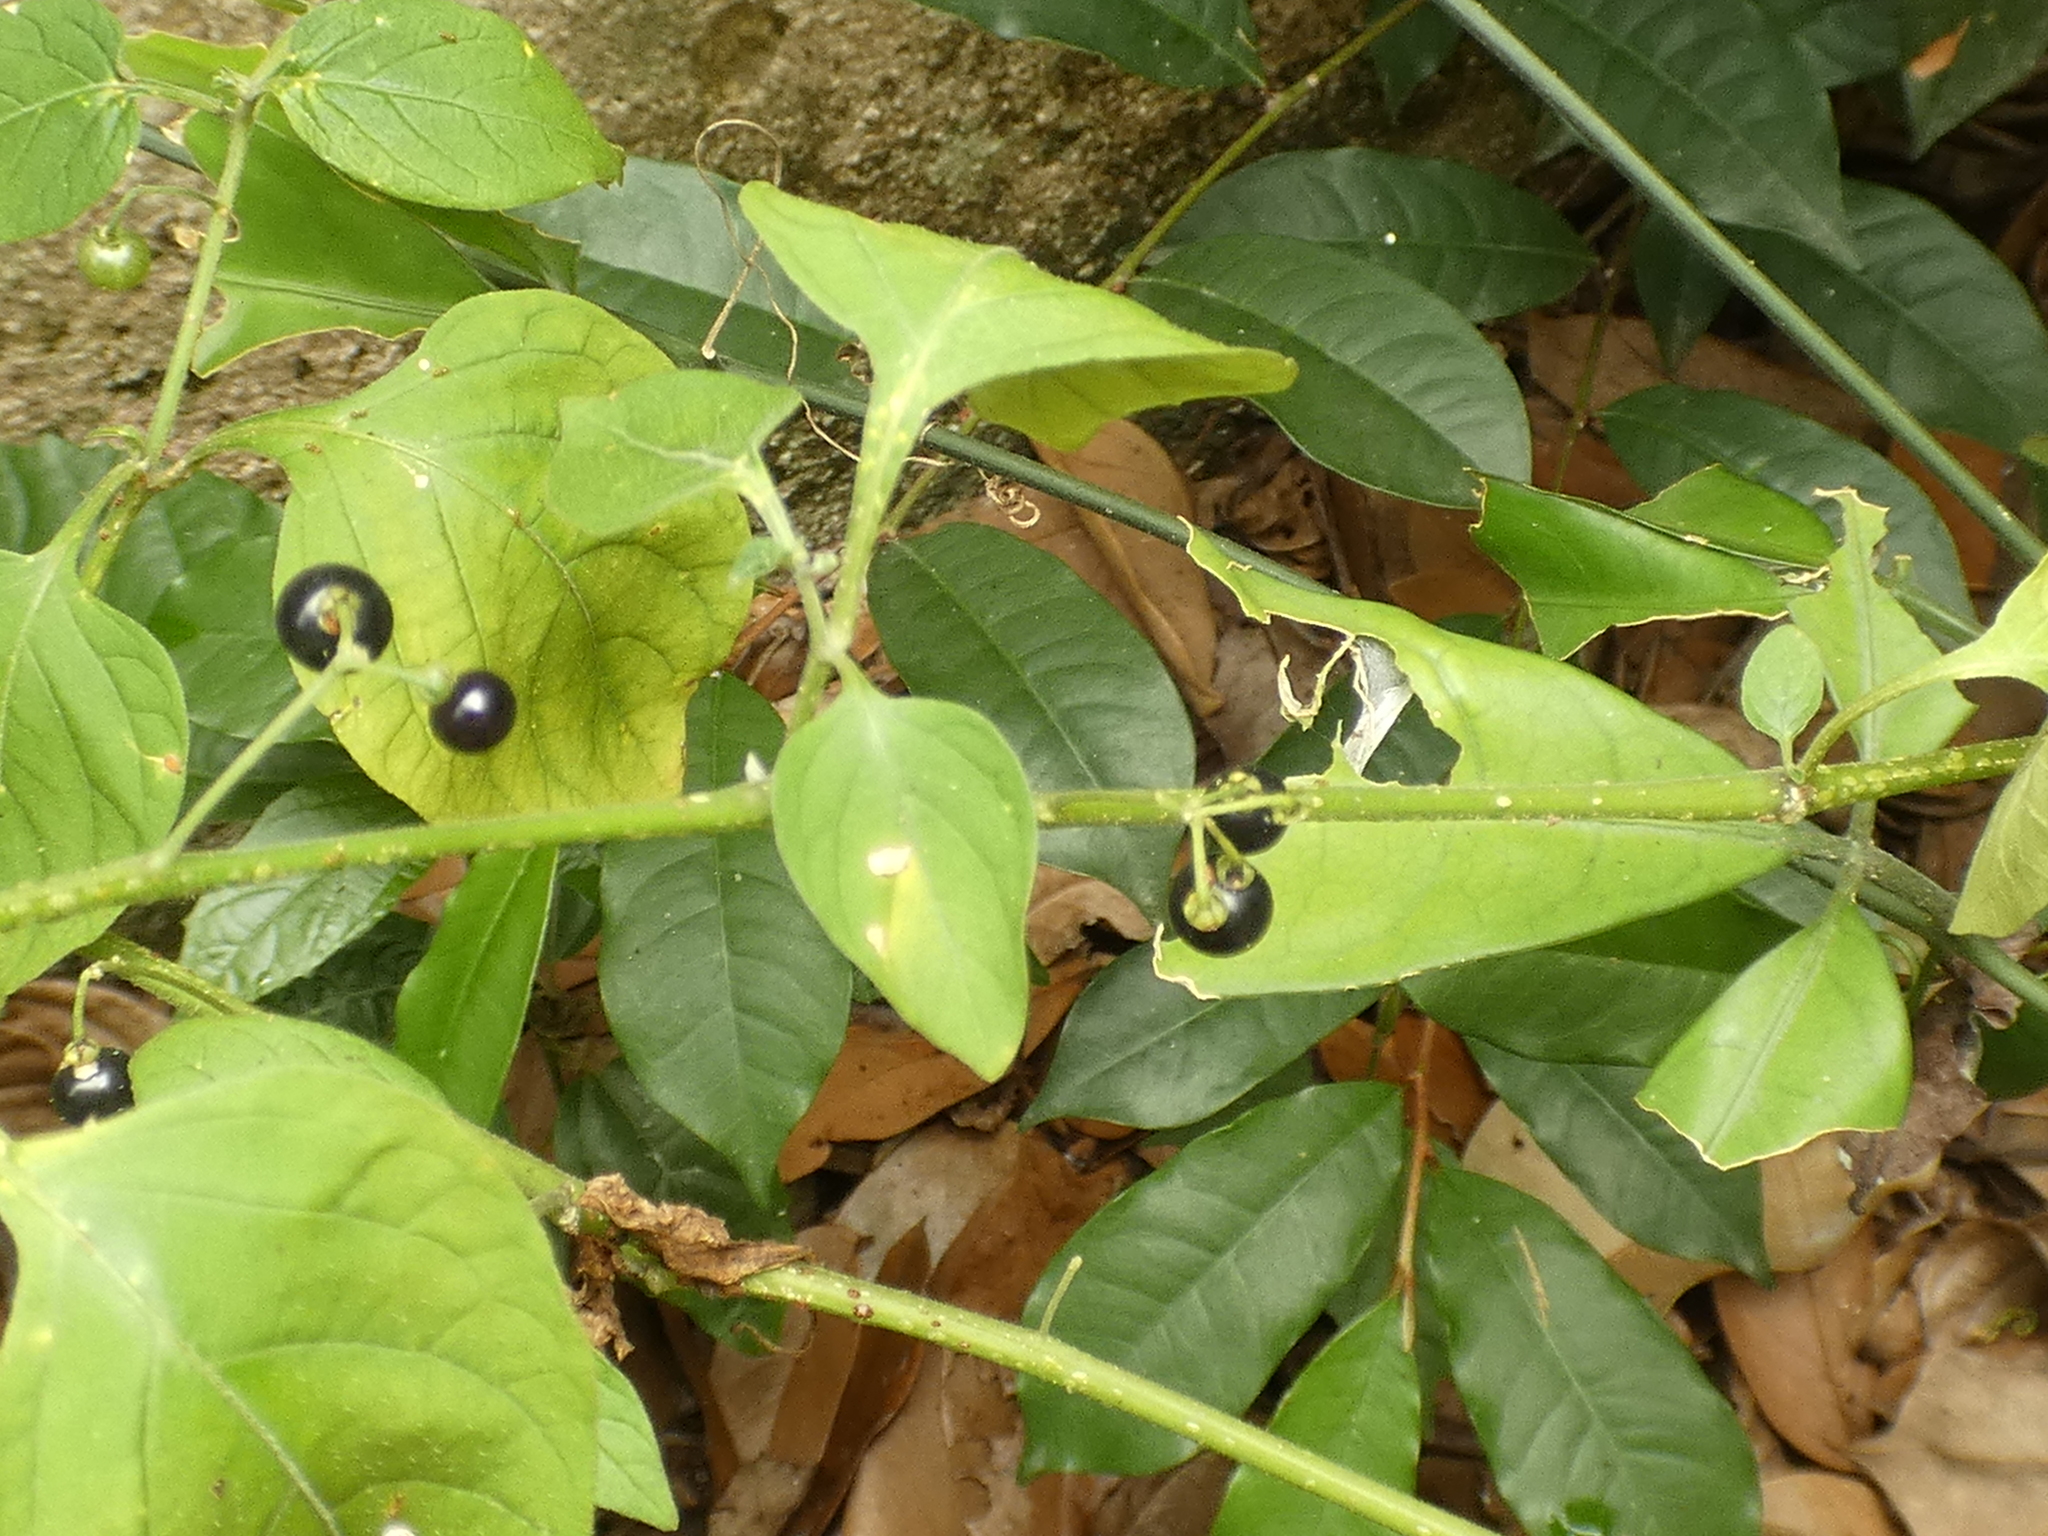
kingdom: Plantae
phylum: Tracheophyta
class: Magnoliopsida
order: Solanales
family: Solanaceae
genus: Solanum
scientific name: Solanum americanum
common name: American black nightshade
